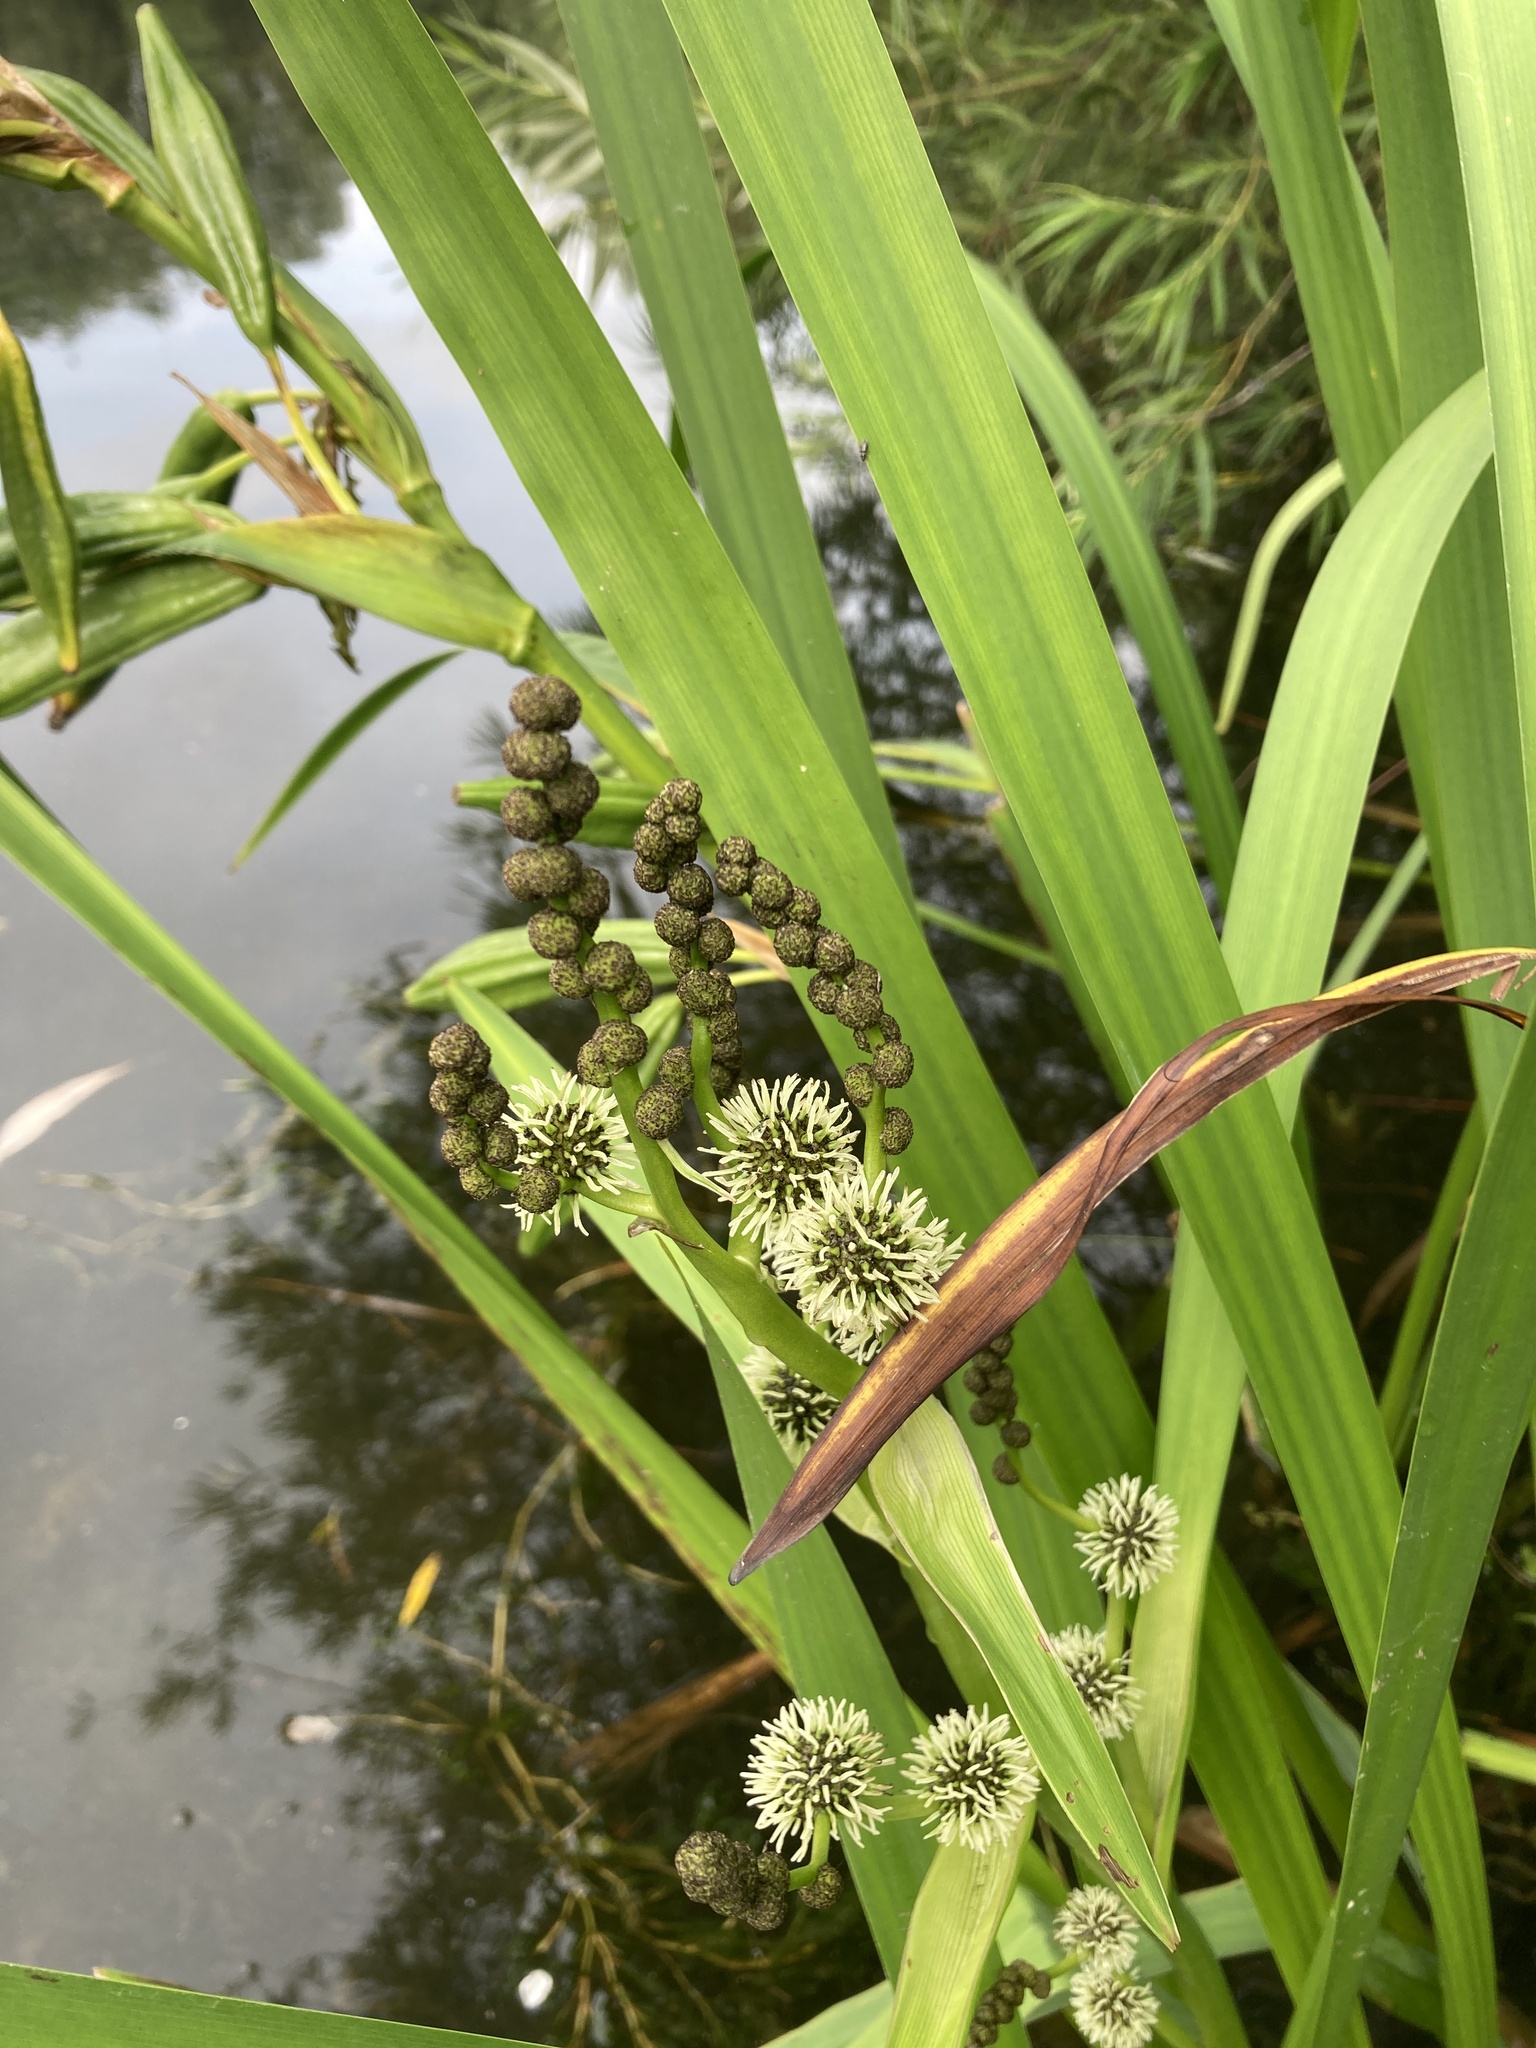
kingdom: Plantae
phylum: Tracheophyta
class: Liliopsida
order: Poales
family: Typhaceae
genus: Sparganium
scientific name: Sparganium erectum
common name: Branched bur-reed
